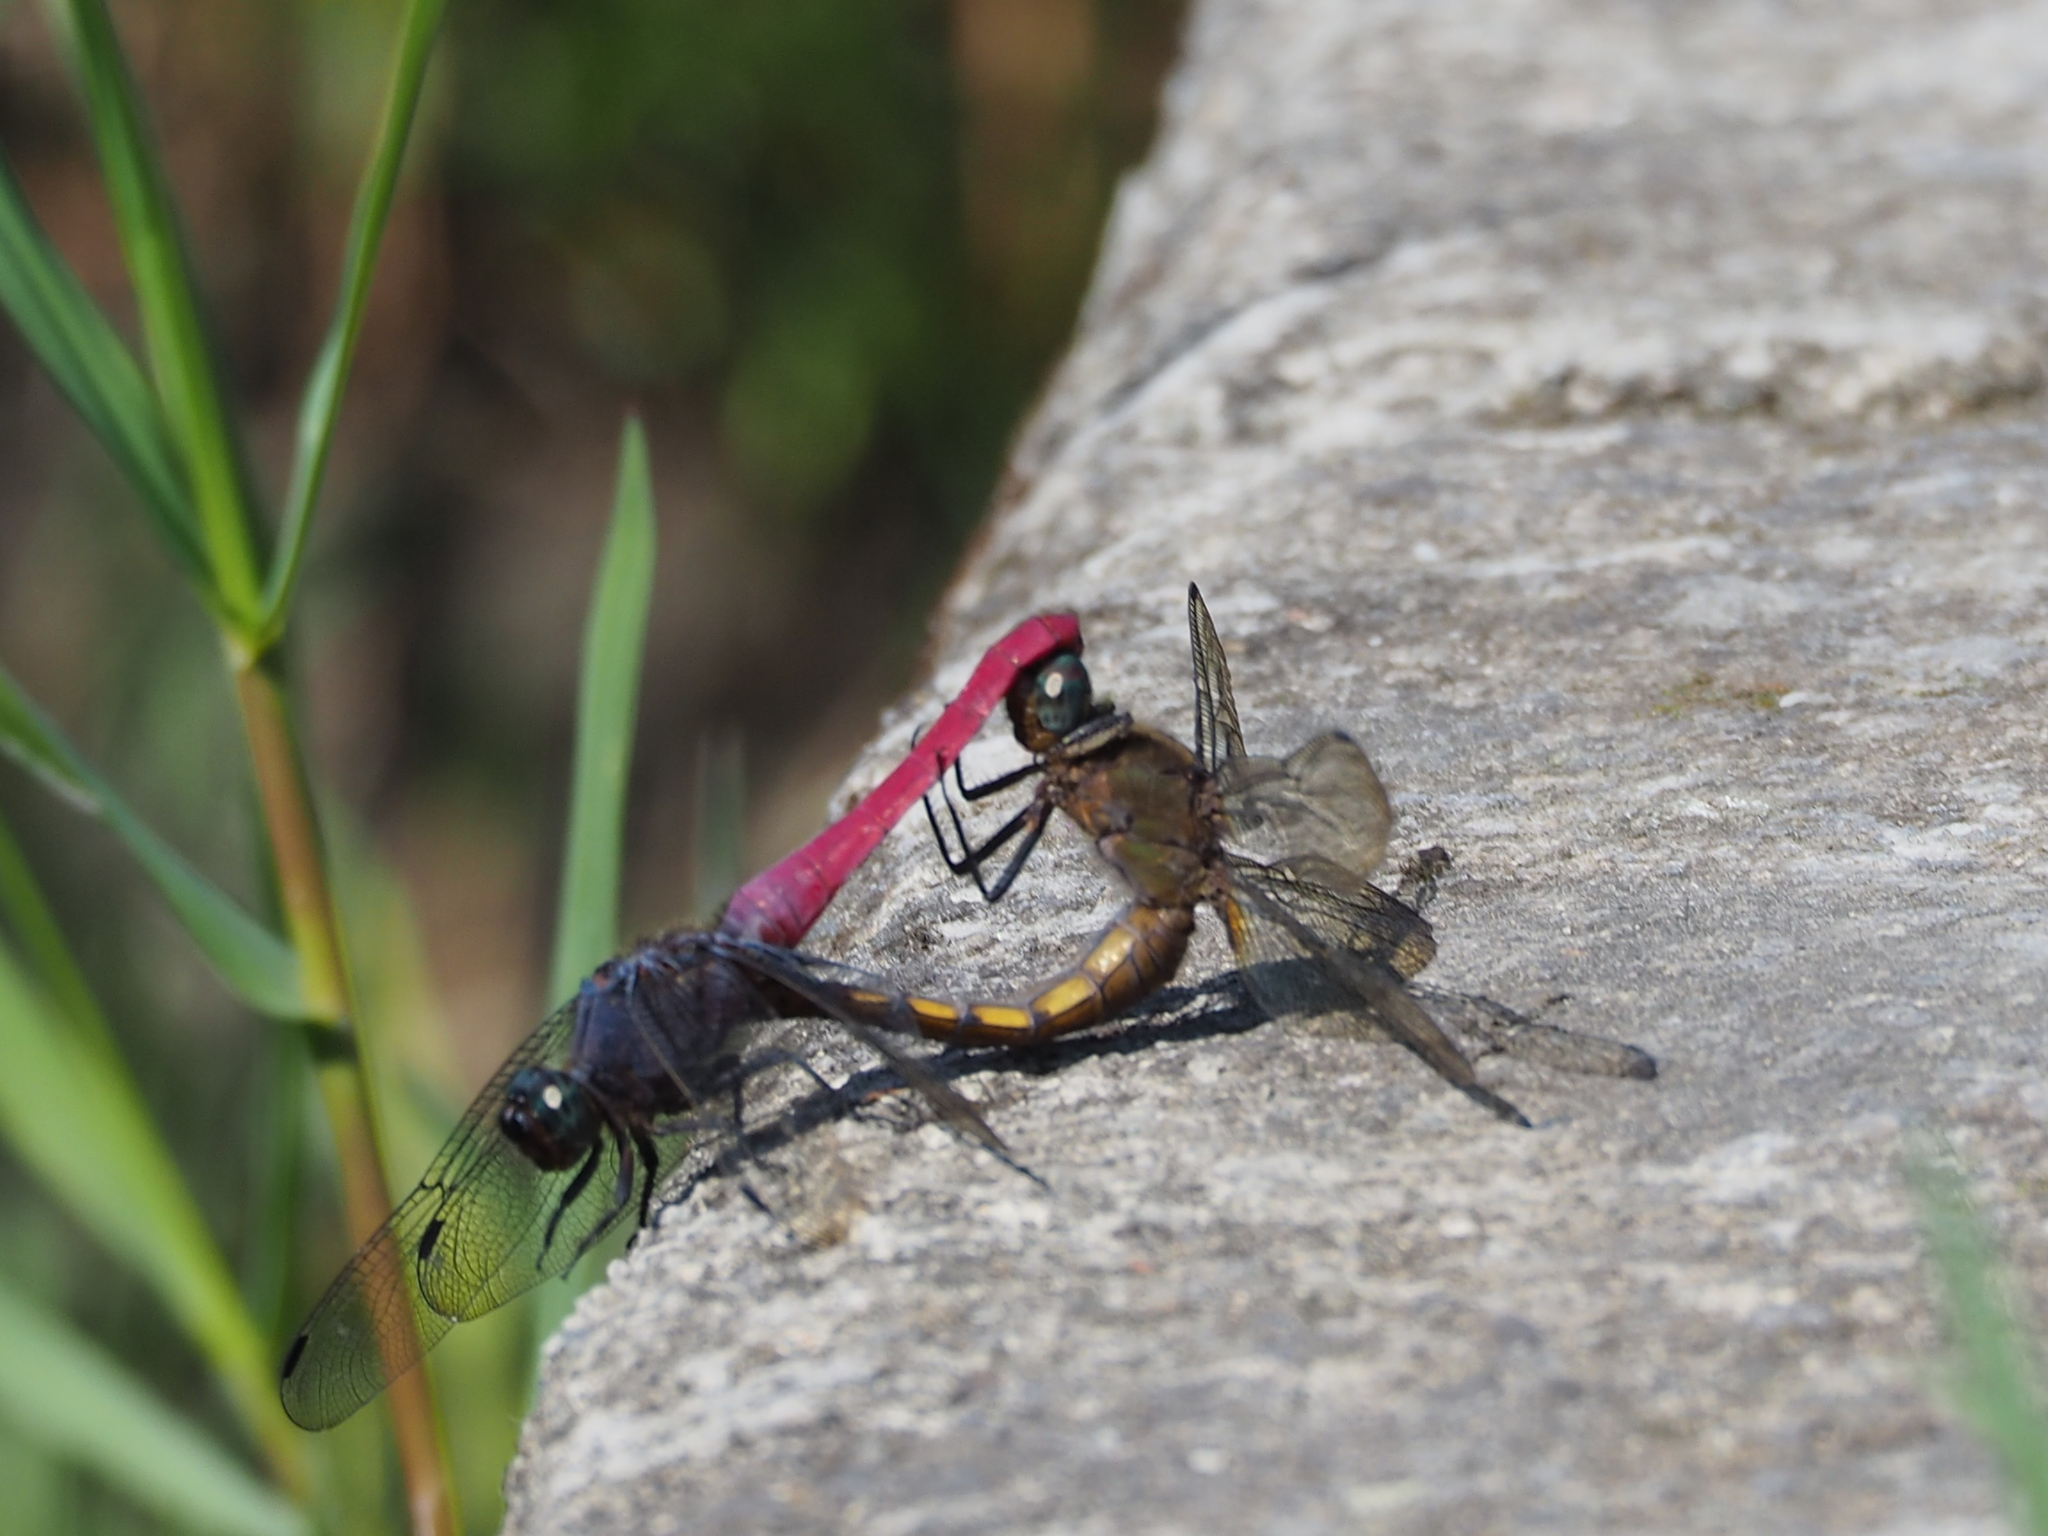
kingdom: Animalia
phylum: Arthropoda
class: Insecta
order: Odonata
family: Libellulidae
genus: Orthetrum
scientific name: Orthetrum pruinosum
